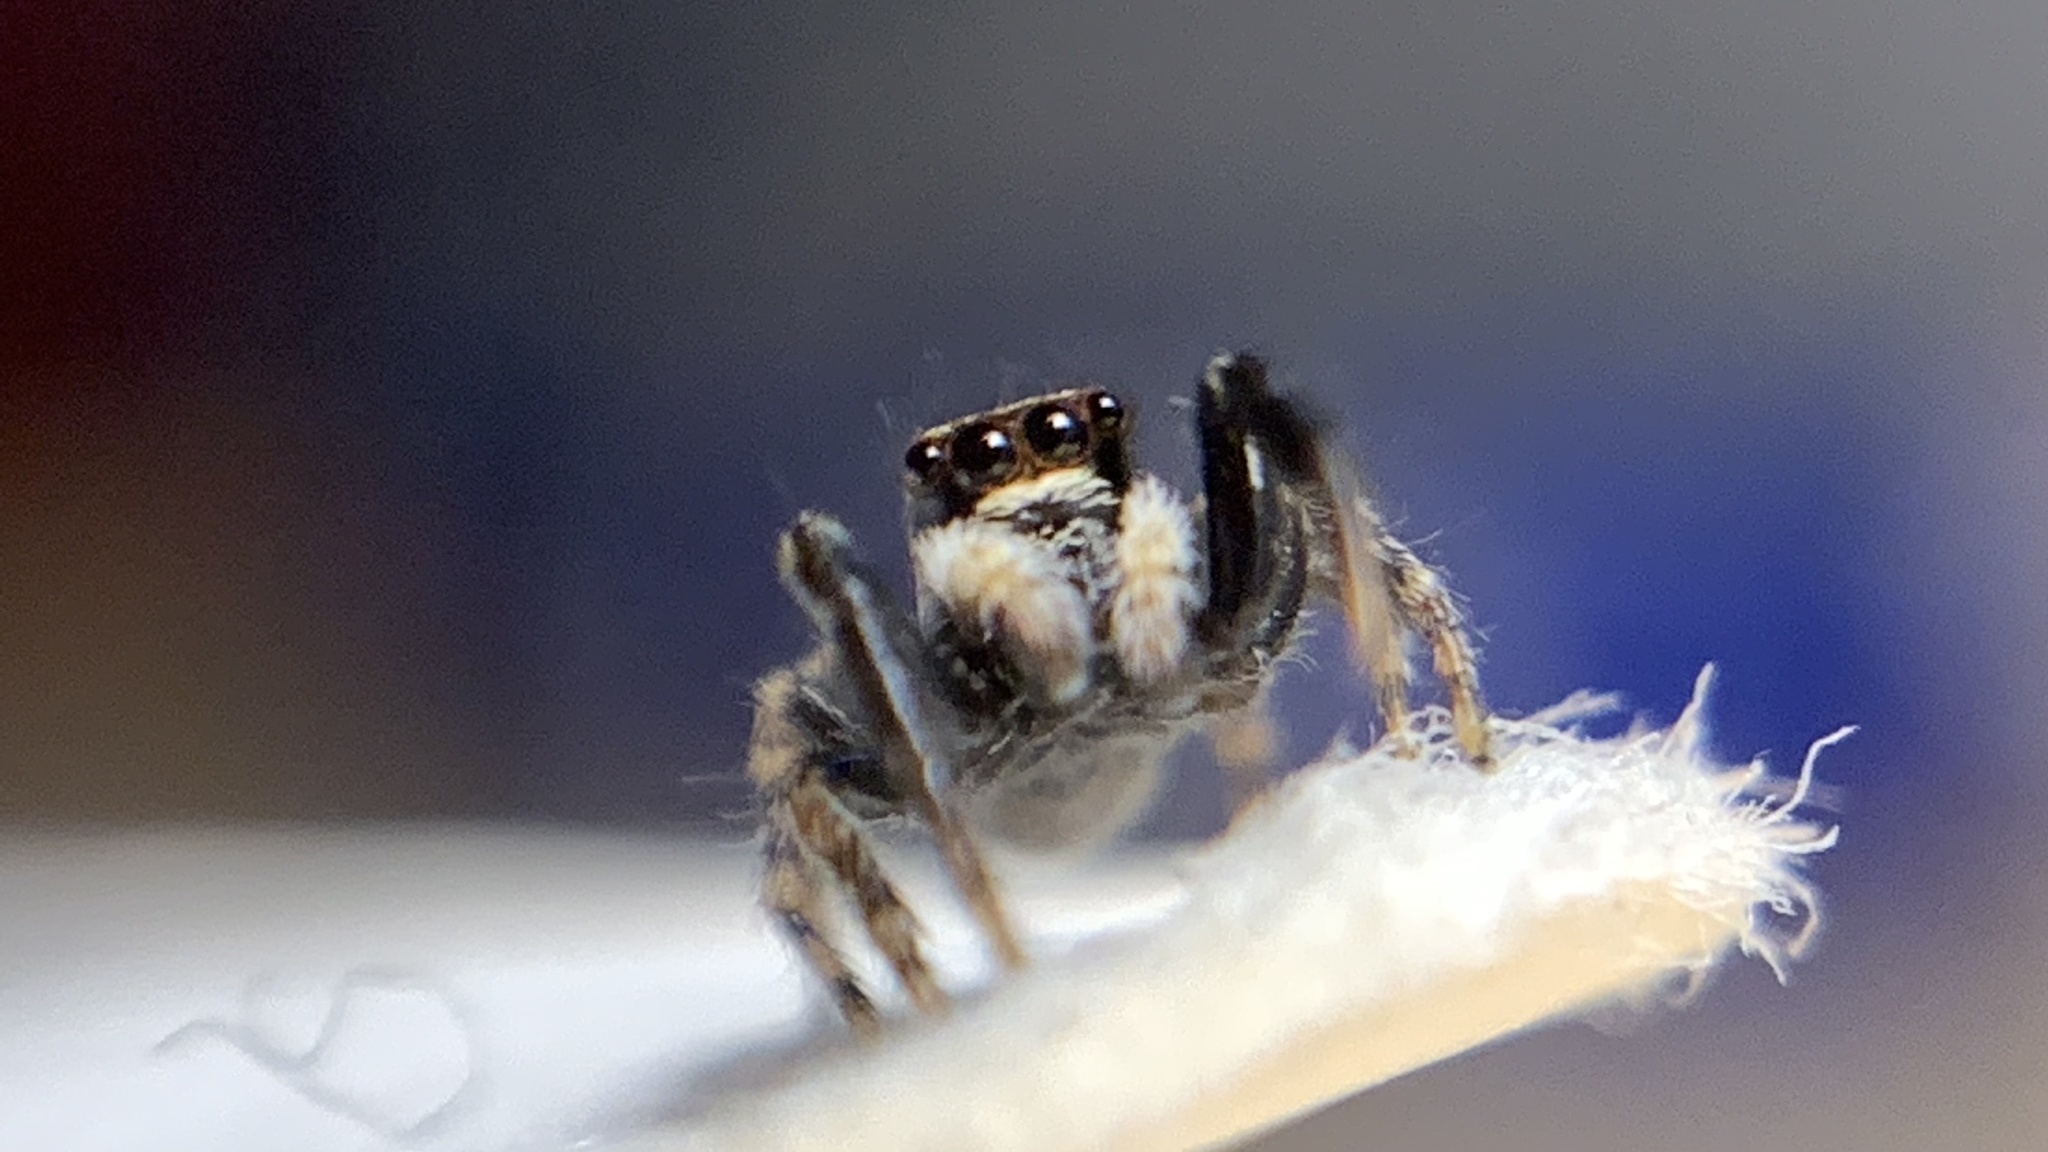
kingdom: Animalia
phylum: Arthropoda
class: Arachnida
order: Araneae
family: Salticidae
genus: Pseudeuophrys
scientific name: Pseudeuophrys lanigera
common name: Jumping spider
